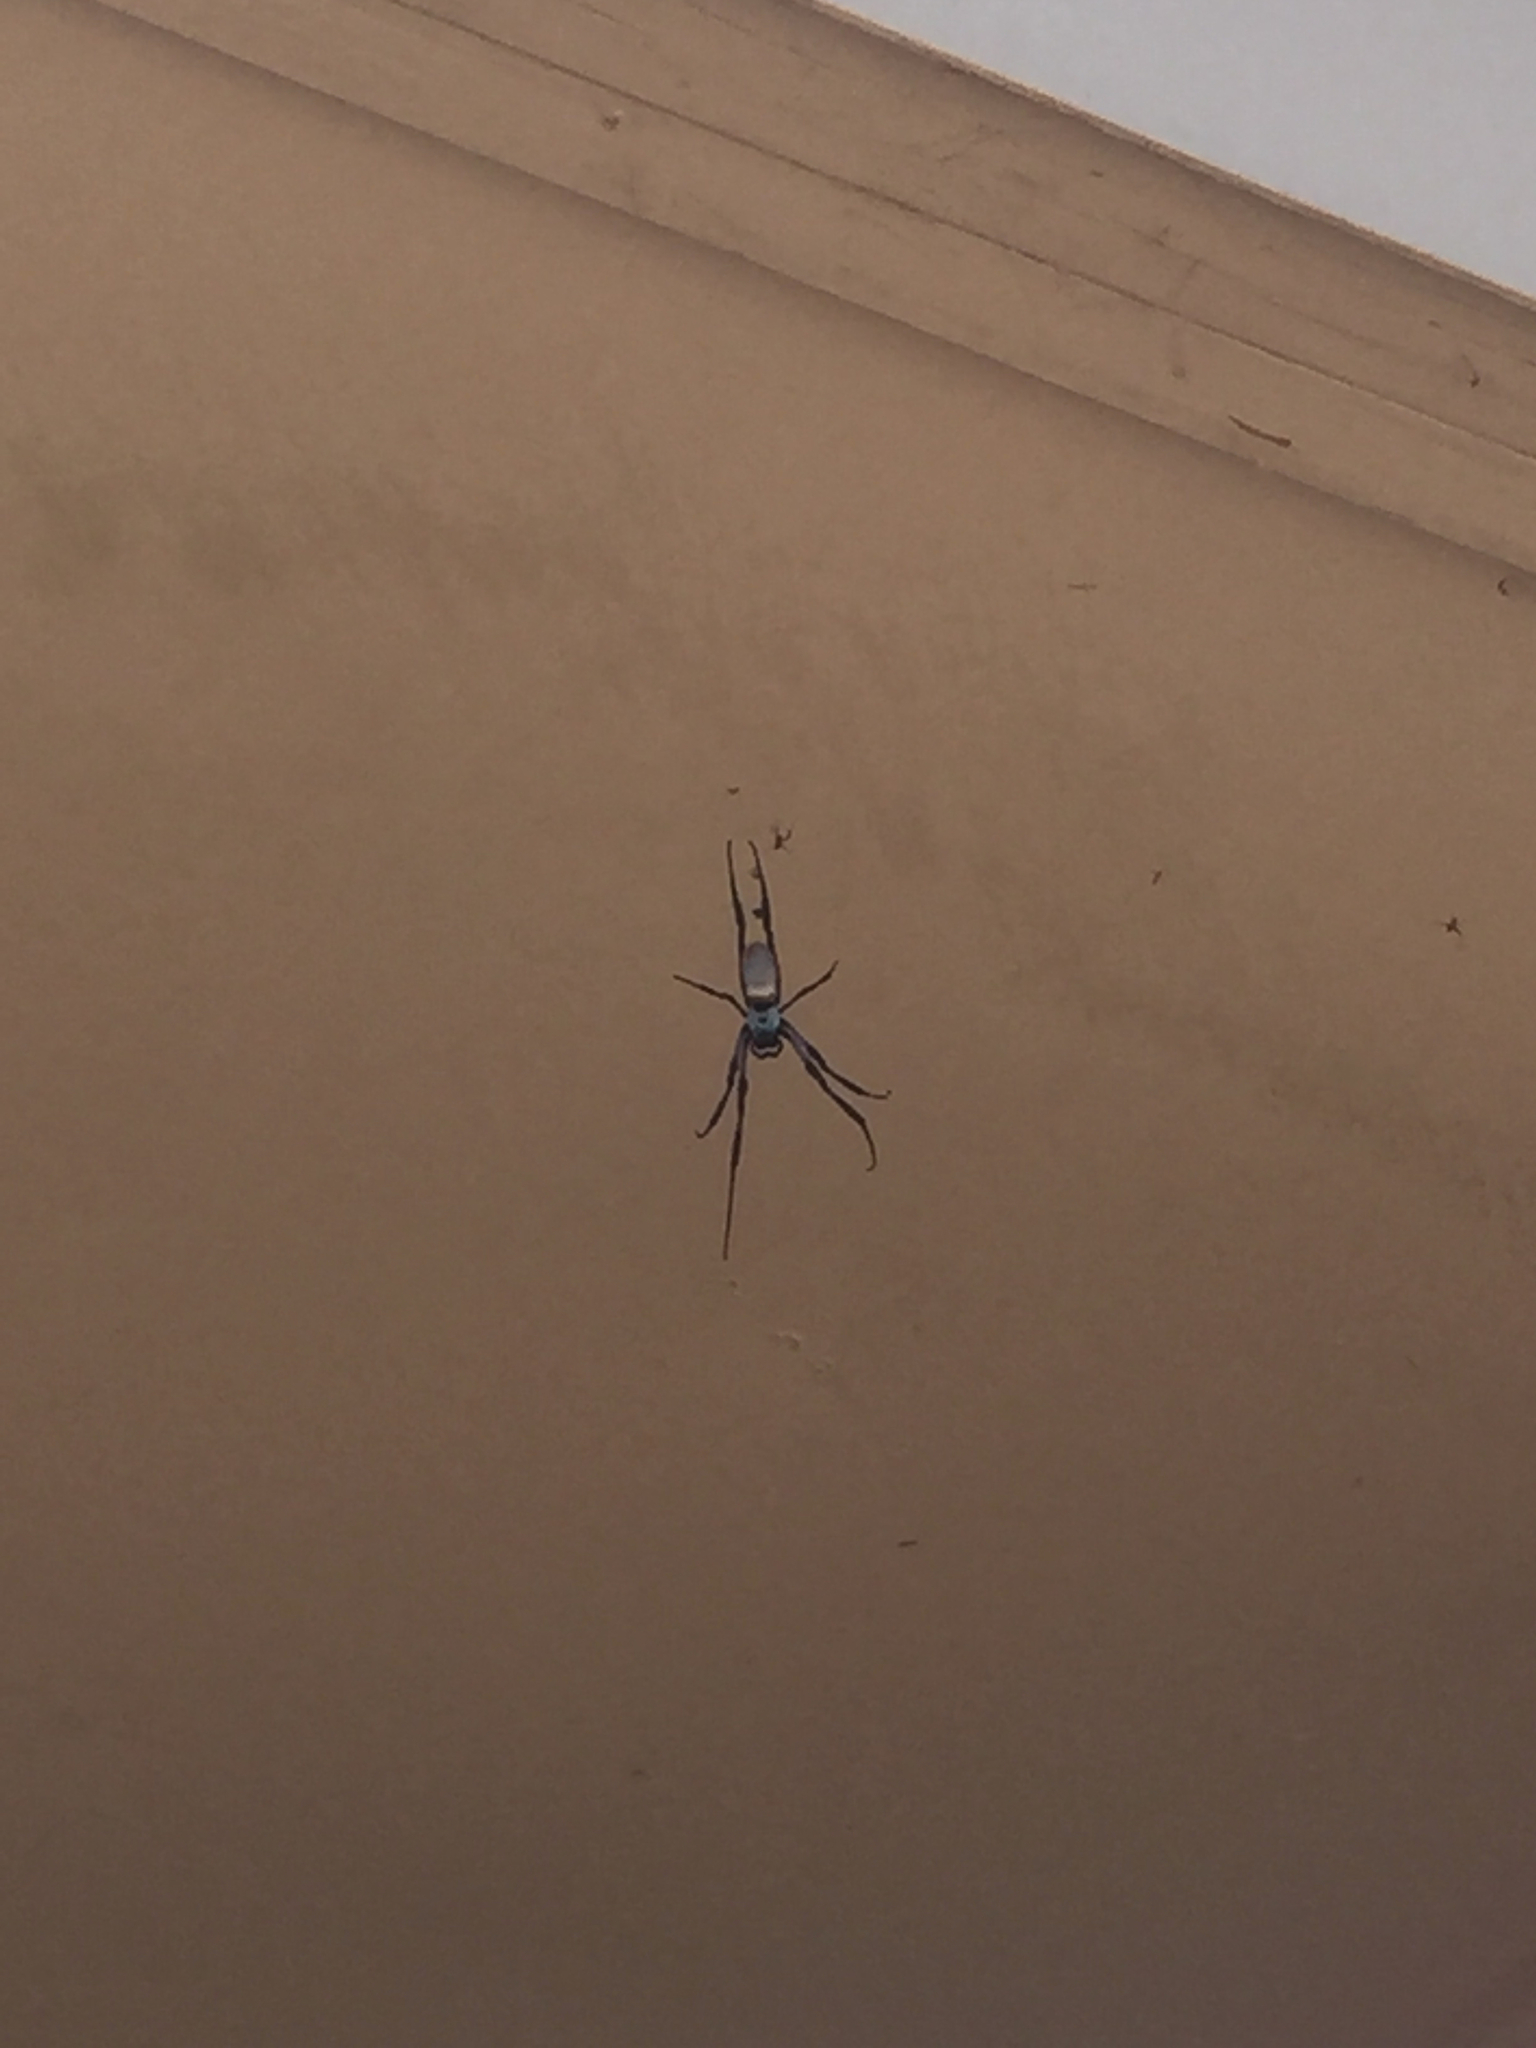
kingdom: Animalia
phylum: Arthropoda
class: Arachnida
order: Araneae
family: Araneidae
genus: Trichonephila
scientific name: Trichonephila edulis
